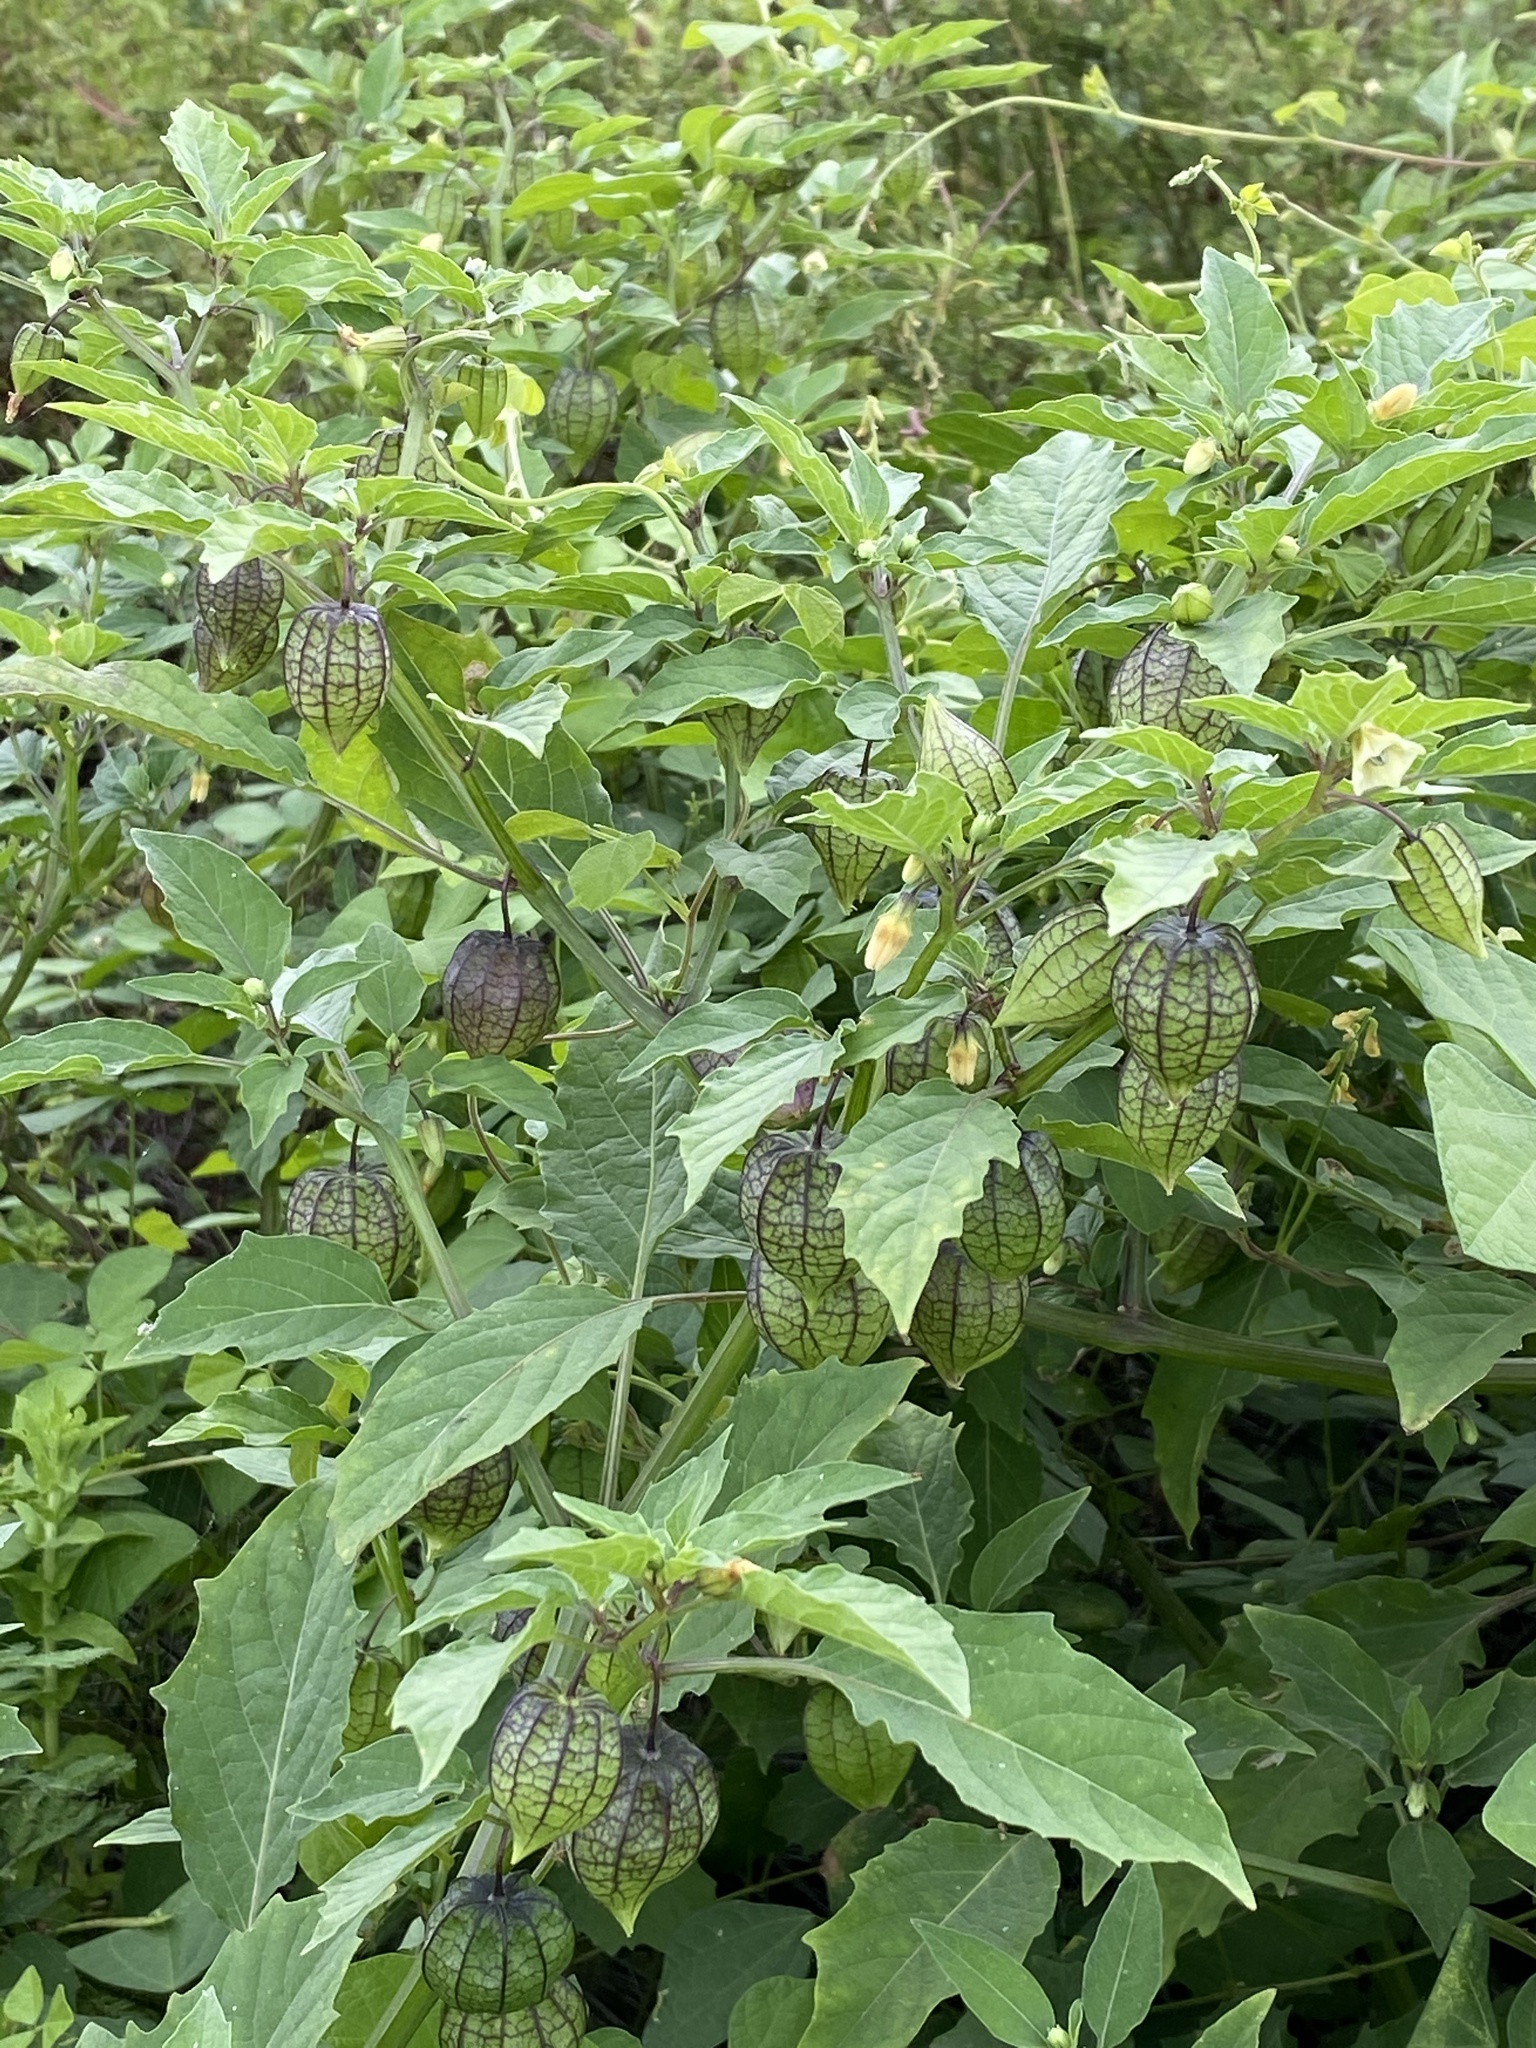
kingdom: Plantae
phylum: Tracheophyta
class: Magnoliopsida
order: Solanales
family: Solanaceae
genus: Physalis
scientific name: Physalis angulata
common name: Angular winter-cherry
